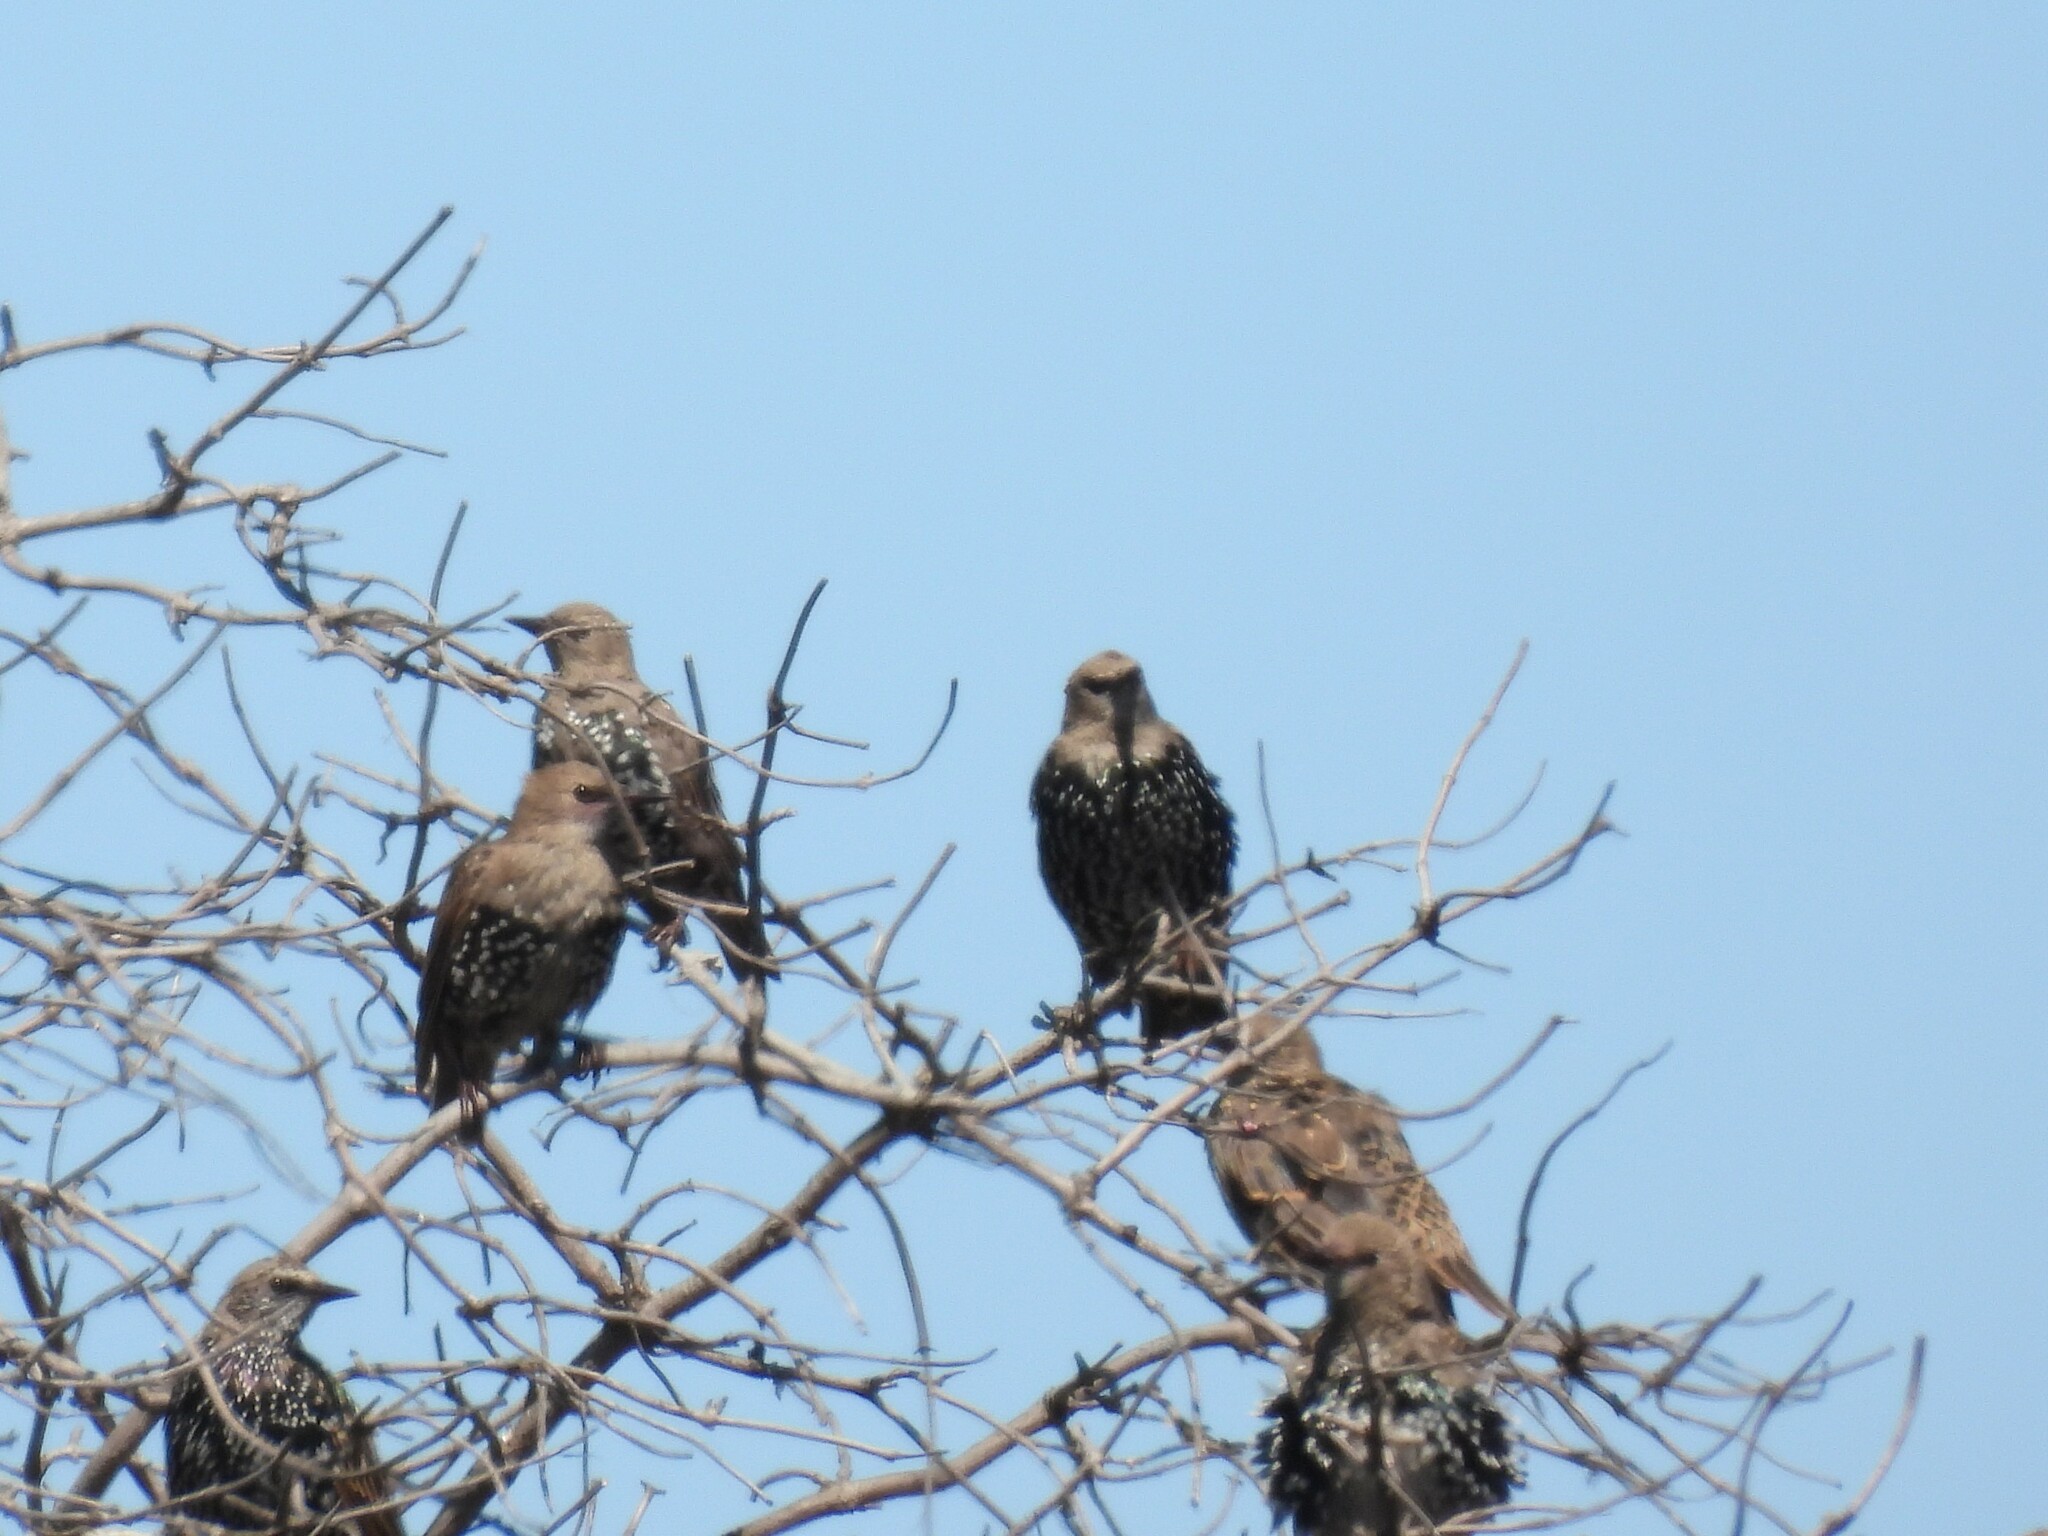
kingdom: Animalia
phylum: Chordata
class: Aves
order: Passeriformes
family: Sturnidae
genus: Sturnus
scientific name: Sturnus vulgaris
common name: Common starling
